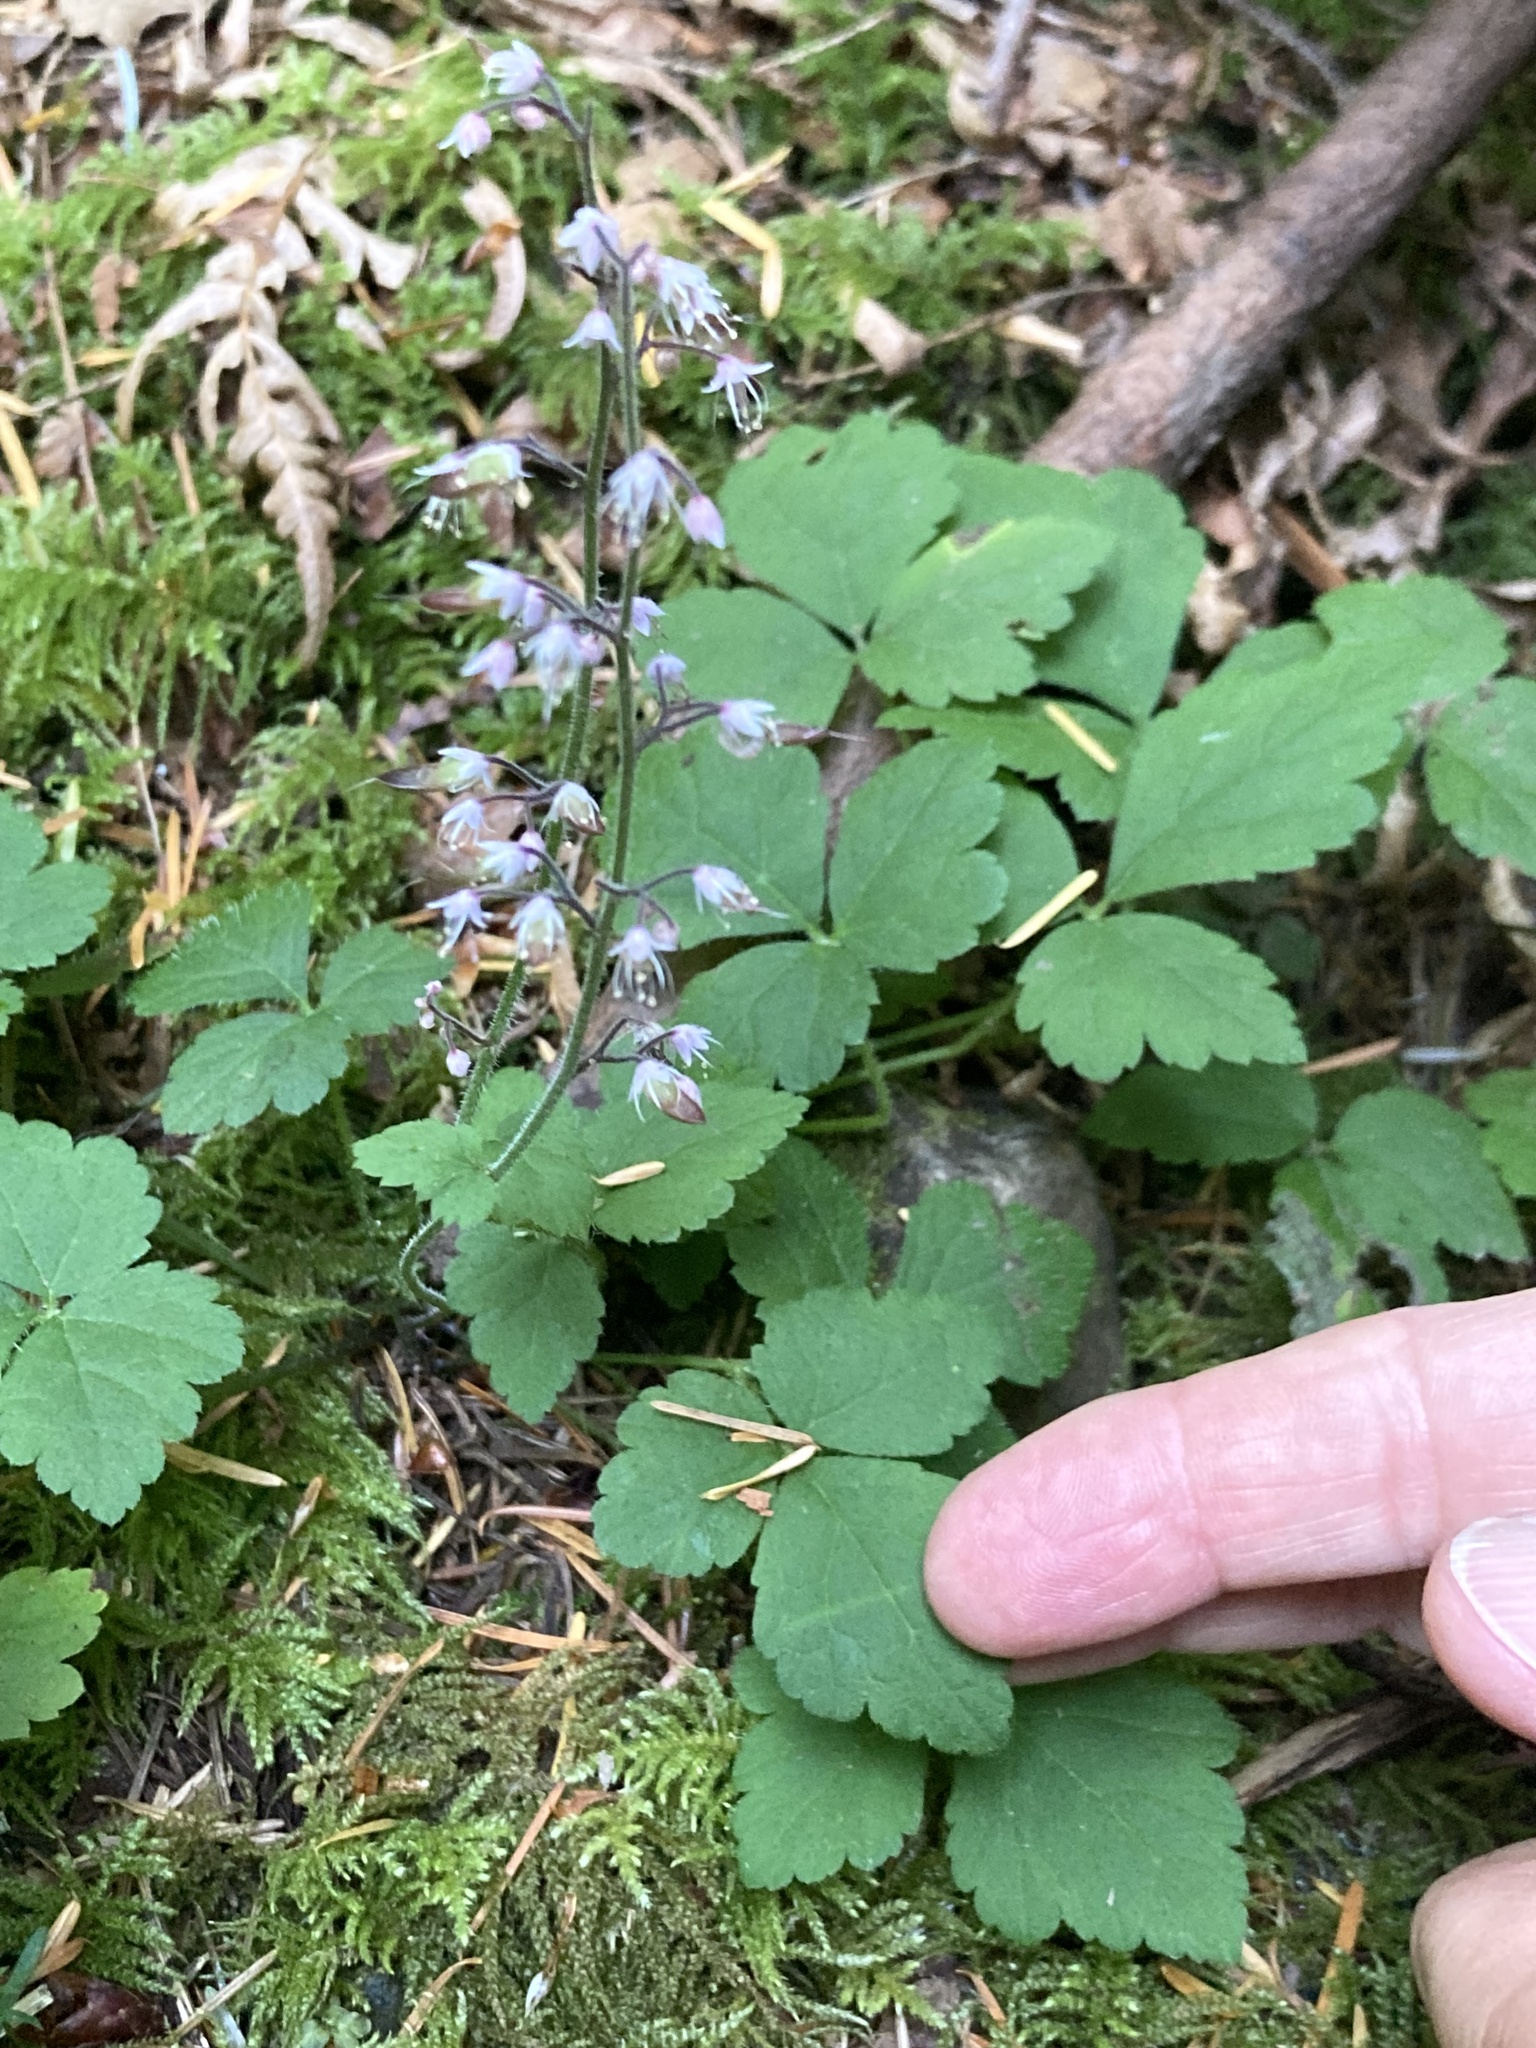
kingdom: Plantae
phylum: Tracheophyta
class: Magnoliopsida
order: Saxifragales
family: Saxifragaceae
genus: Tiarella
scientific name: Tiarella trifoliata
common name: Sugar-scoop
